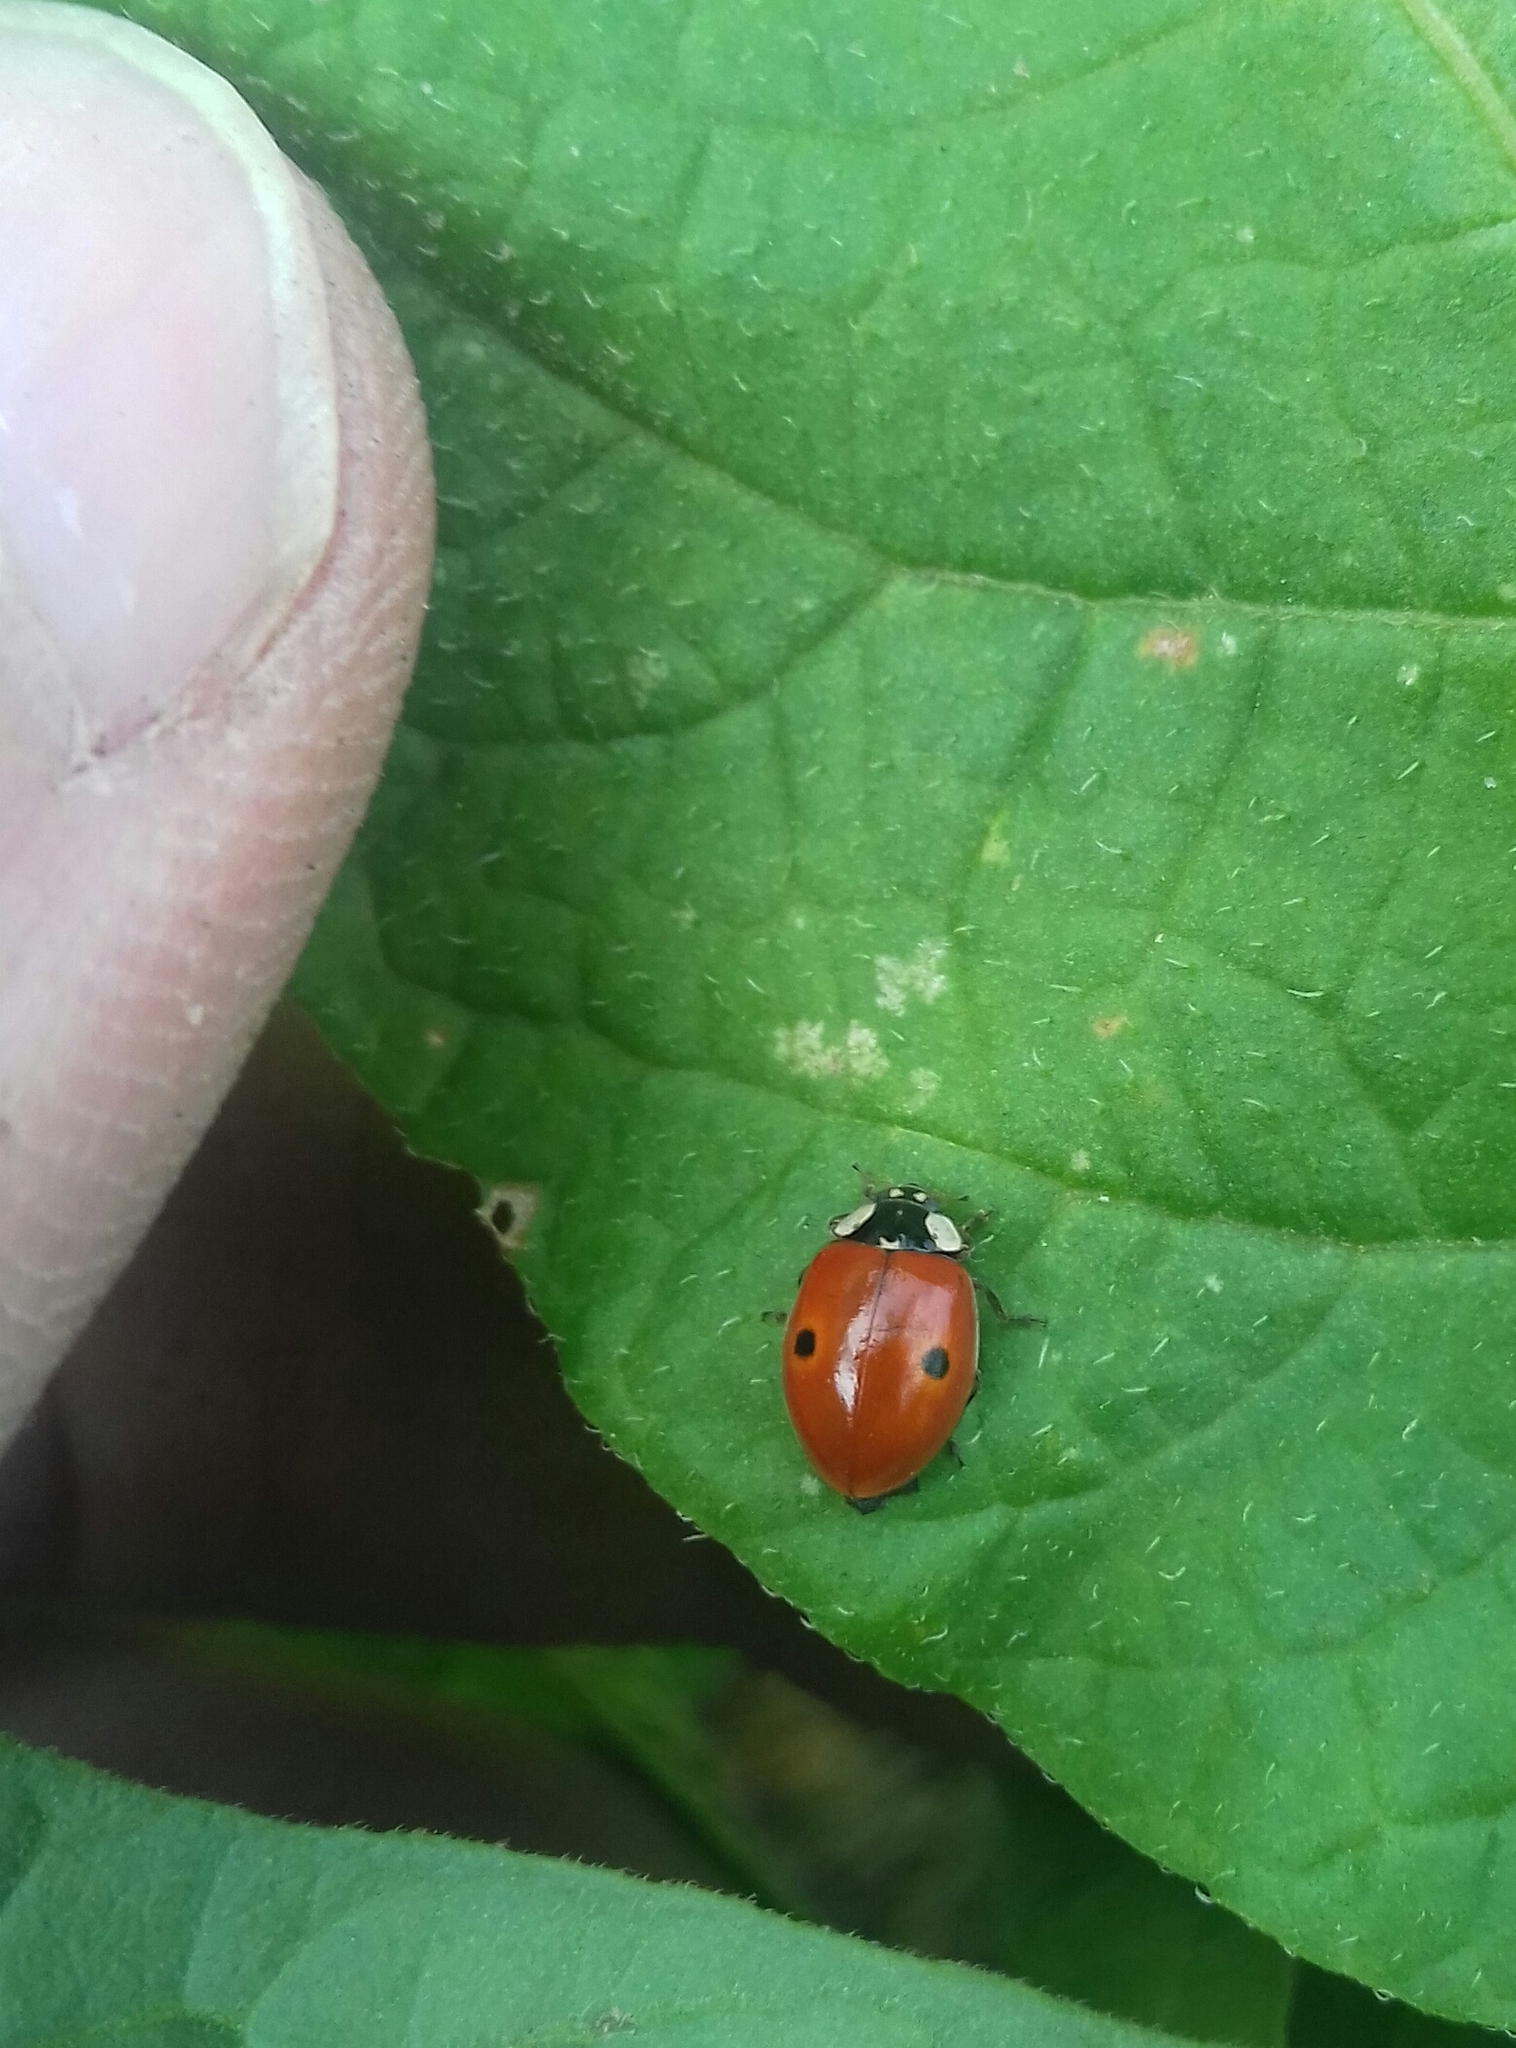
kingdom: Animalia
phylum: Arthropoda
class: Insecta
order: Coleoptera
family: Coccinellidae
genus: Adalia
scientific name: Adalia bipunctata
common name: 2-spot ladybird
